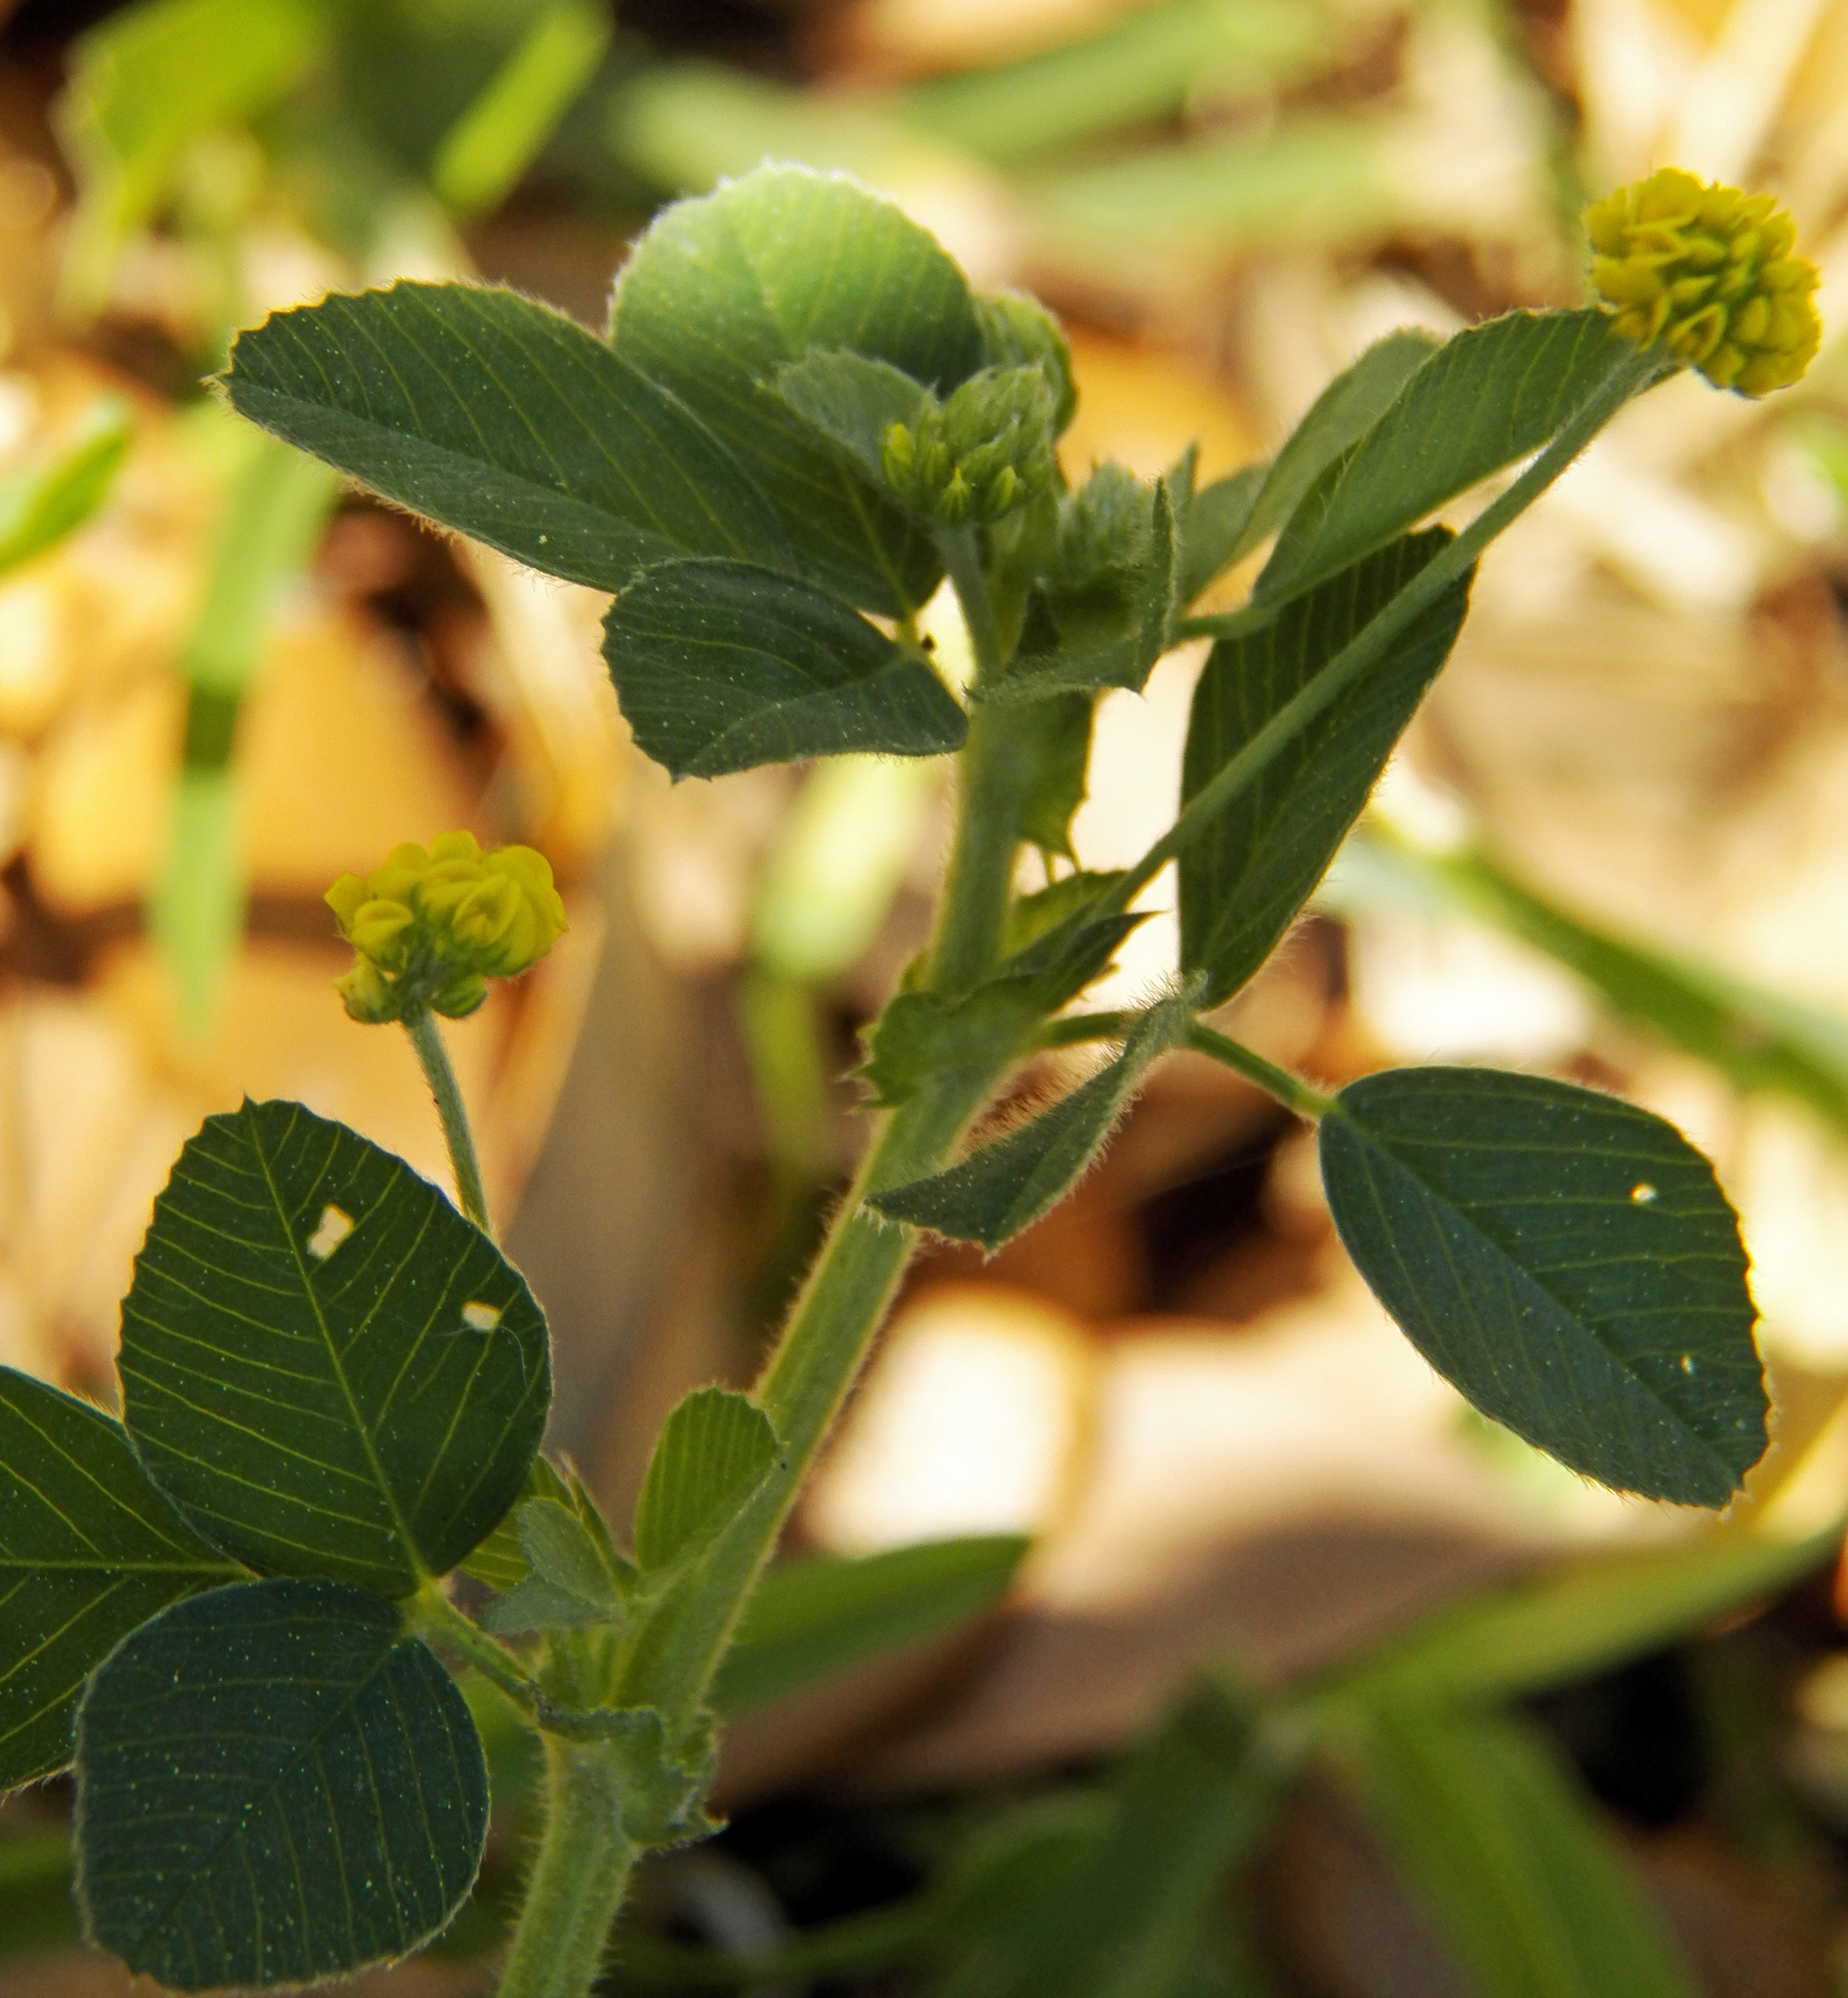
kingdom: Plantae
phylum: Tracheophyta
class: Magnoliopsida
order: Fabales
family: Fabaceae
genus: Medicago
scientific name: Medicago lupulina
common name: Black medick
